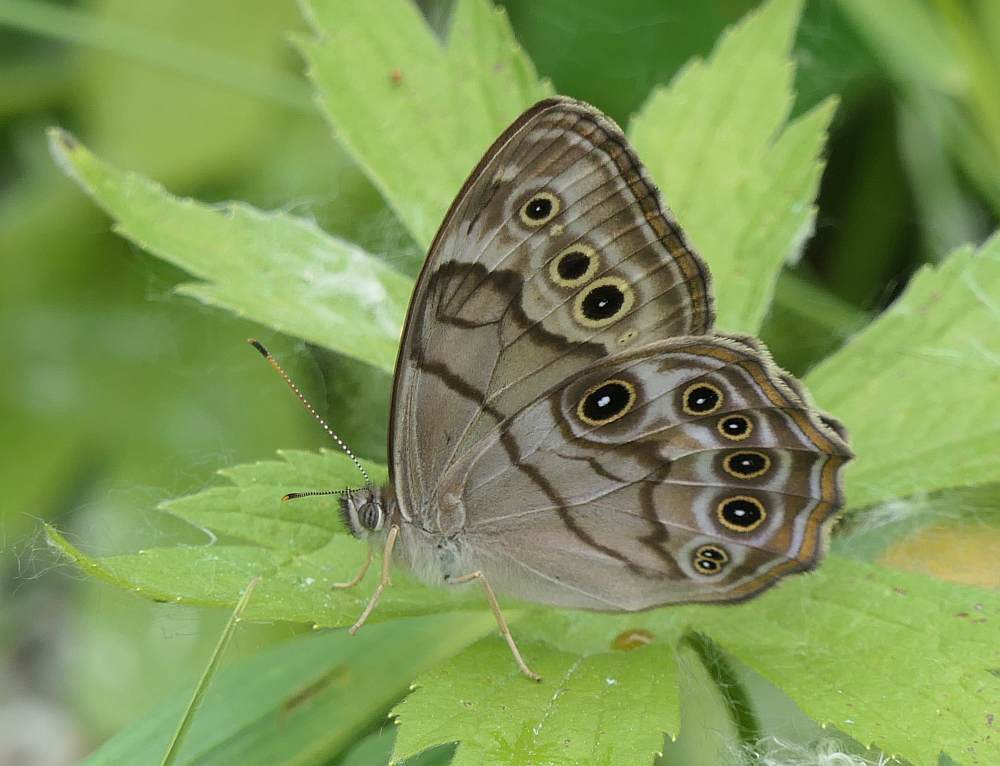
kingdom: Animalia
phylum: Arthropoda
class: Insecta
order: Lepidoptera
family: Nymphalidae
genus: Lethe
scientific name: Lethe anthedon
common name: Northern pearly-eye
